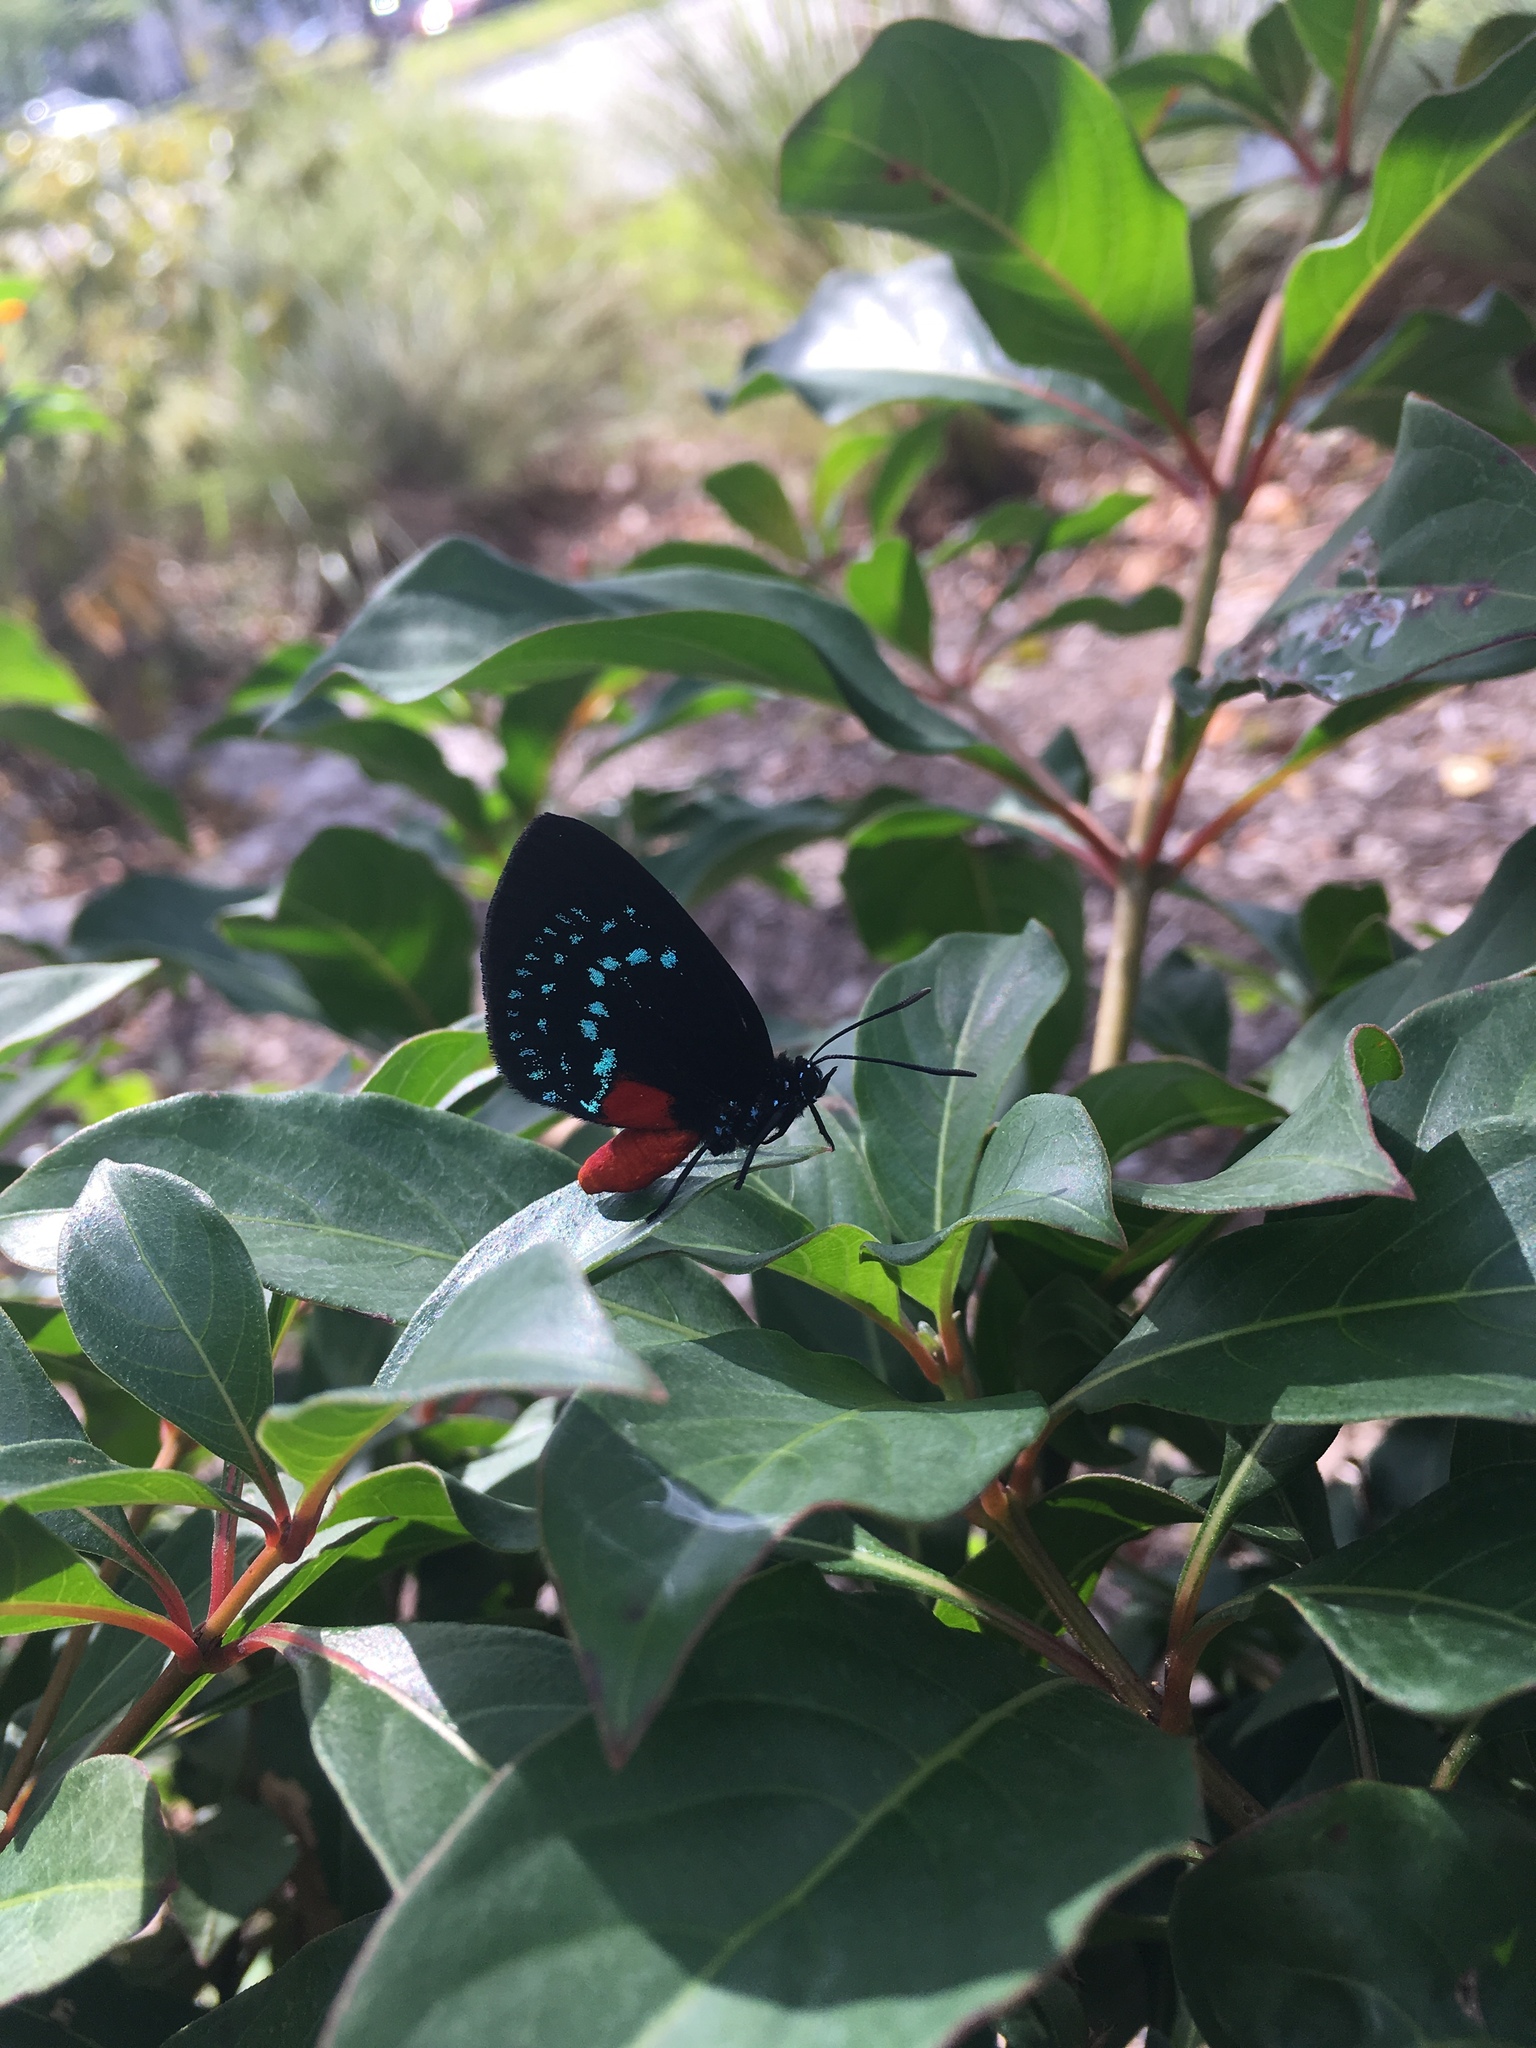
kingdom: Animalia
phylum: Arthropoda
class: Insecta
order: Lepidoptera
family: Lycaenidae
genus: Eumaeus
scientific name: Eumaeus atala
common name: Atala
